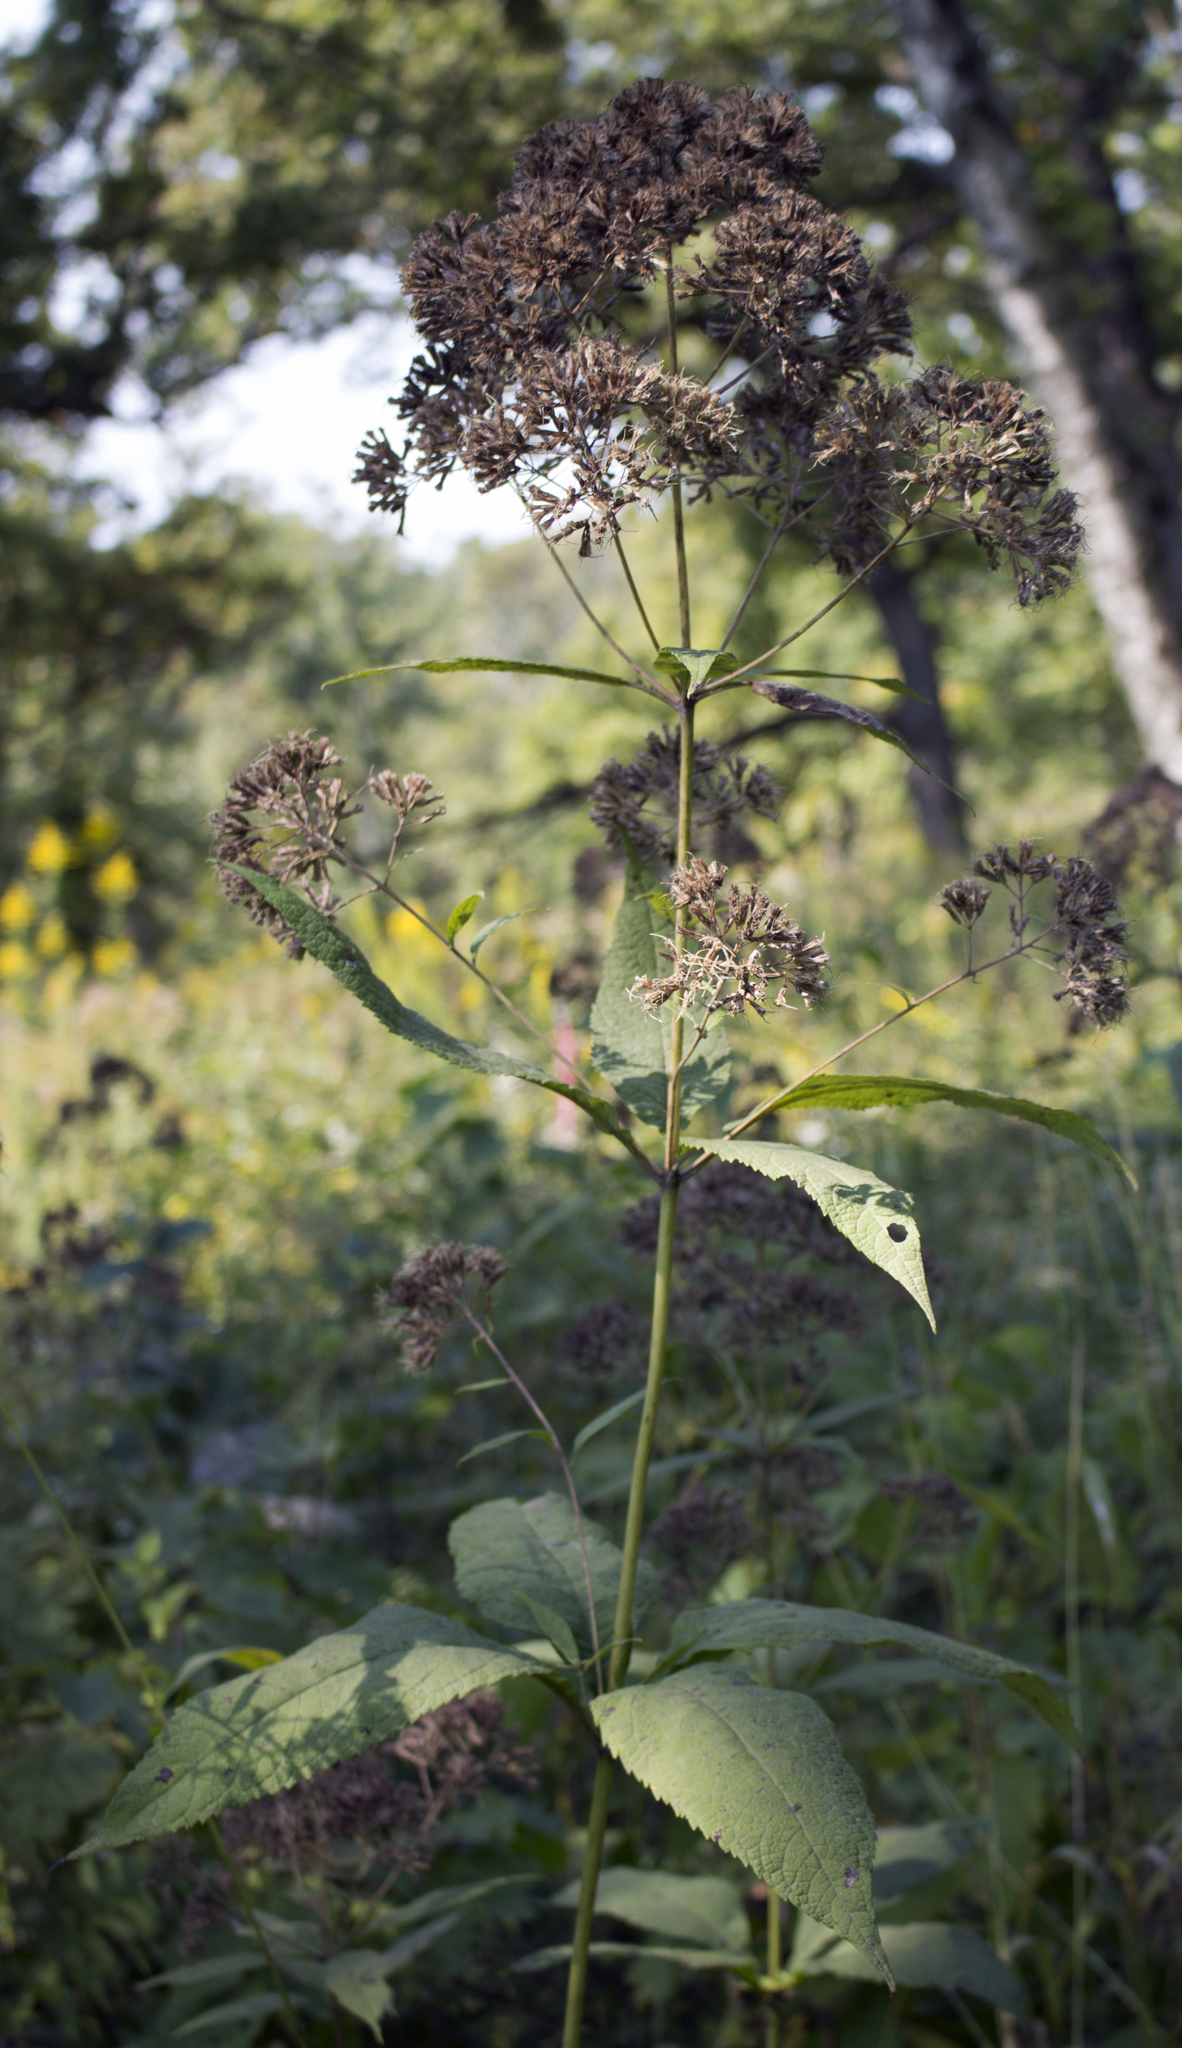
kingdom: Plantae
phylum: Tracheophyta
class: Magnoliopsida
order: Asterales
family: Asteraceae
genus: Eutrochium
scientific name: Eutrochium purpureum
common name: Gravelroot
